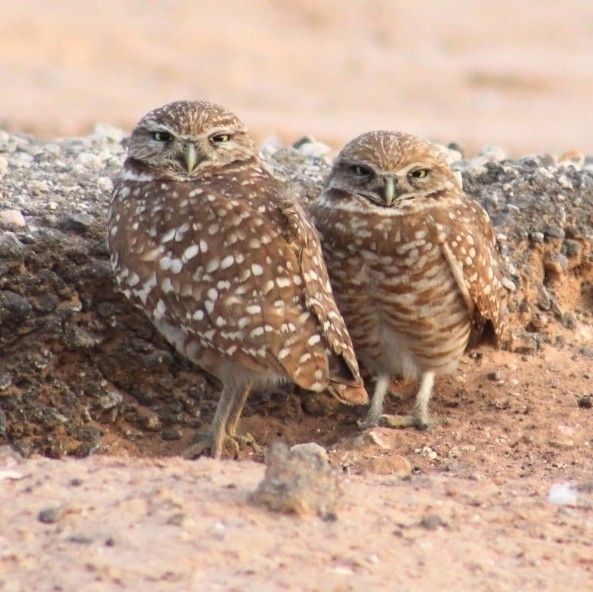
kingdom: Animalia
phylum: Chordata
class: Aves
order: Strigiformes
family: Strigidae
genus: Athene
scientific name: Athene cunicularia
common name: Burrowing owl
